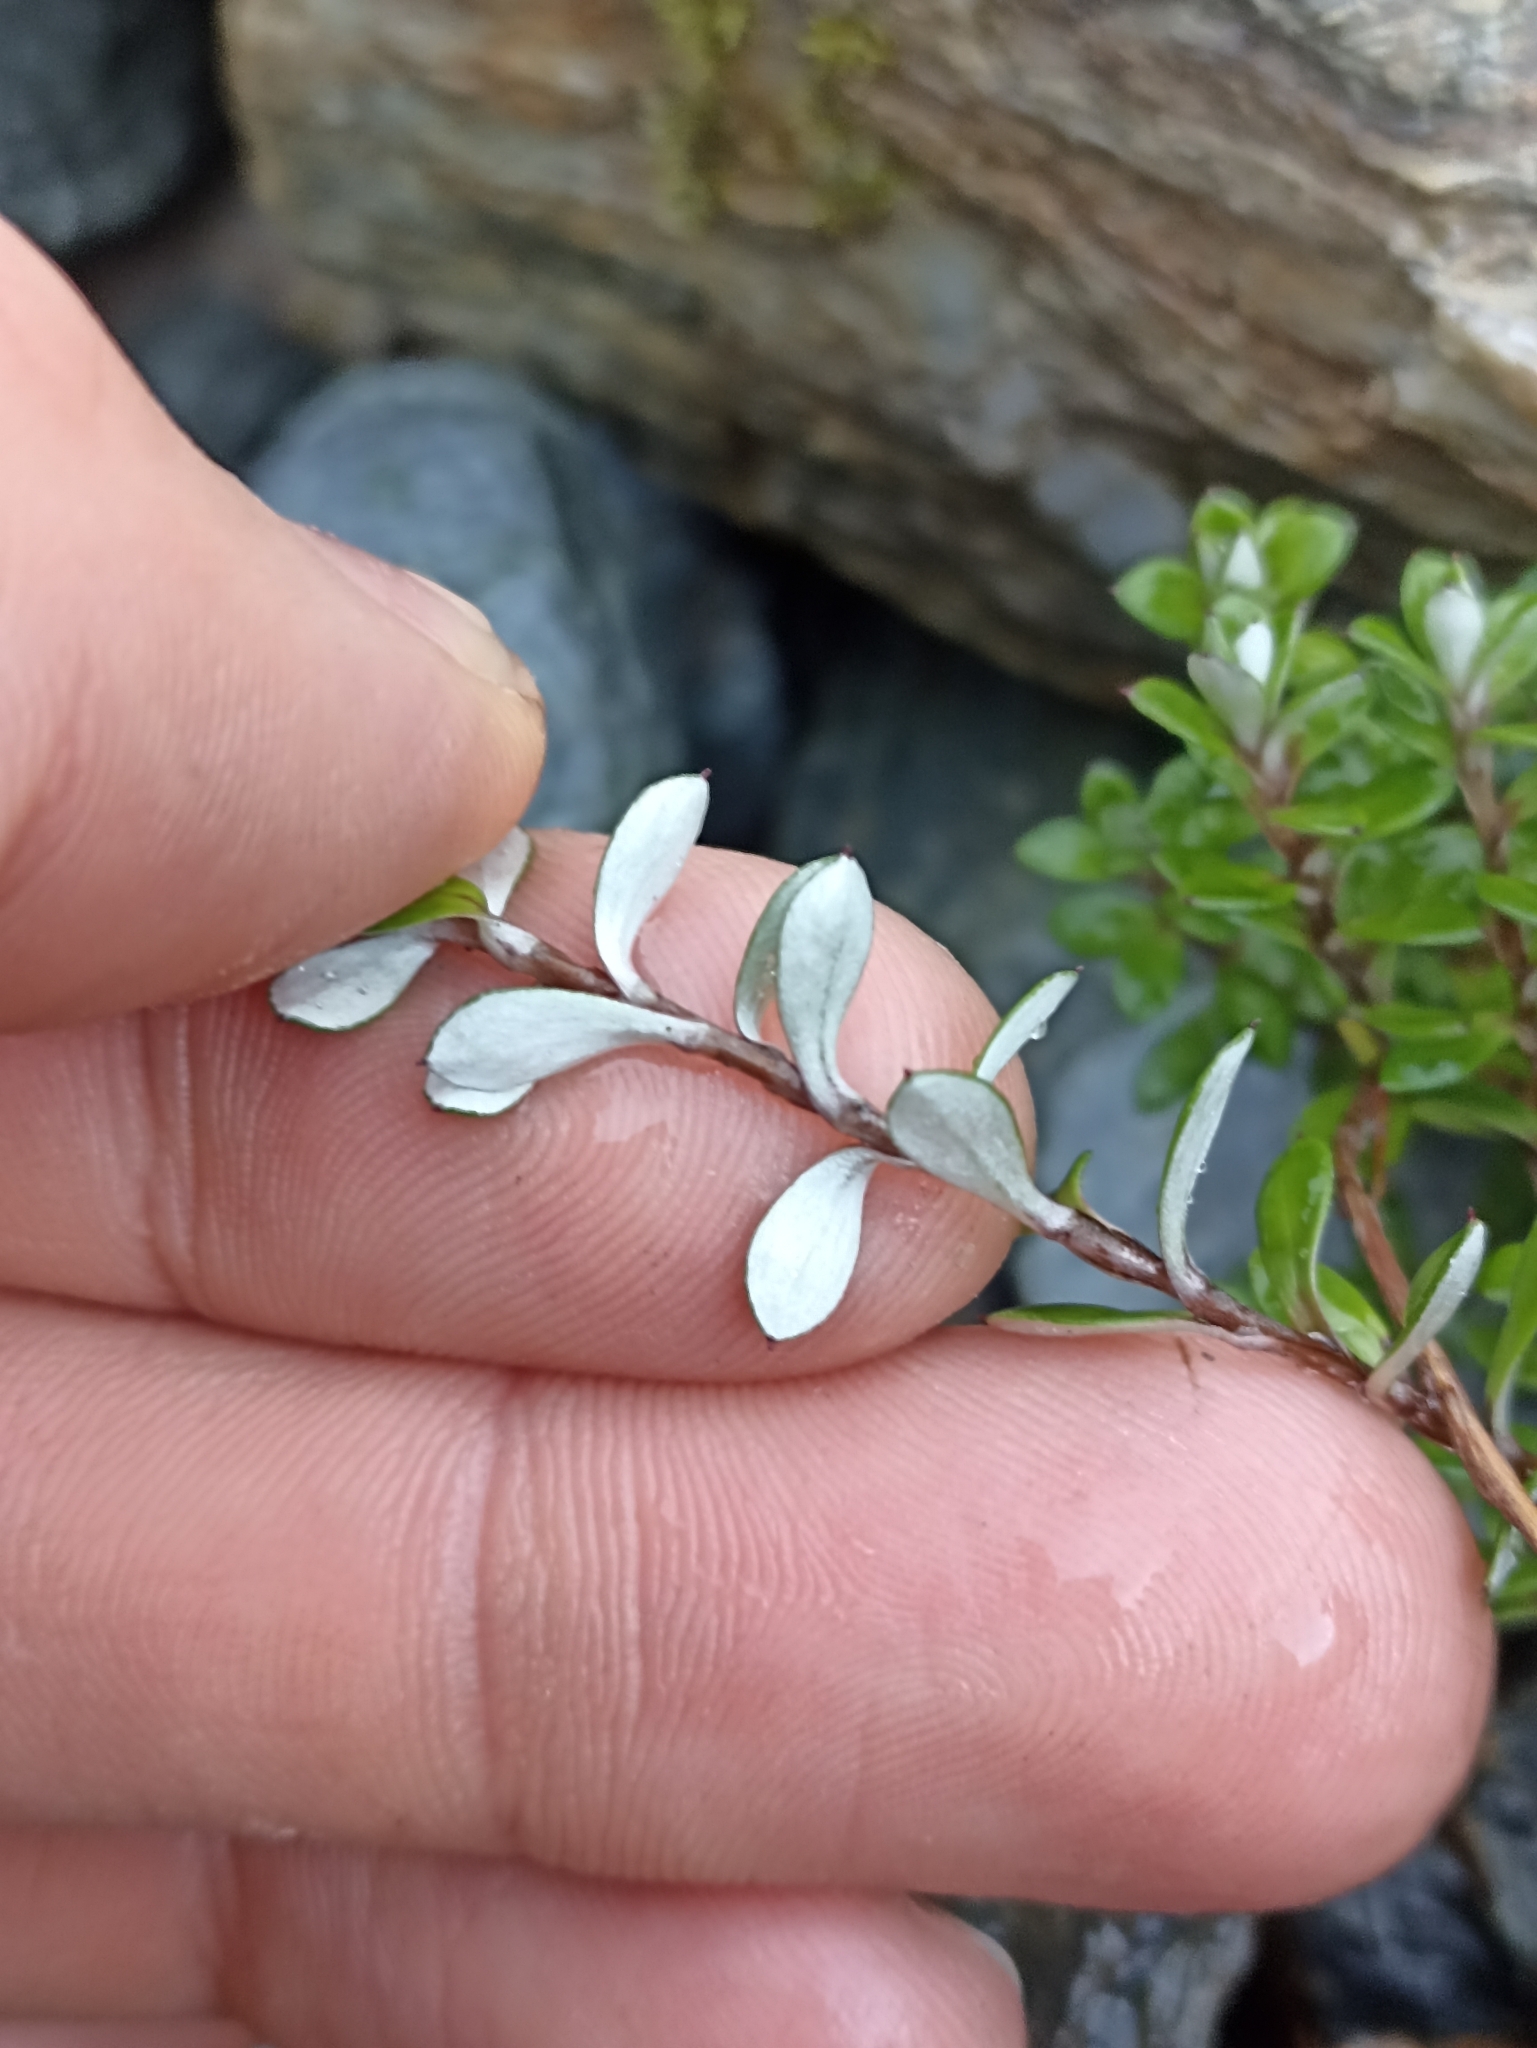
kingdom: Plantae
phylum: Tracheophyta
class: Magnoliopsida
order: Asterales
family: Asteraceae
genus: Anaphalioides
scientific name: Anaphalioides bellidioides
